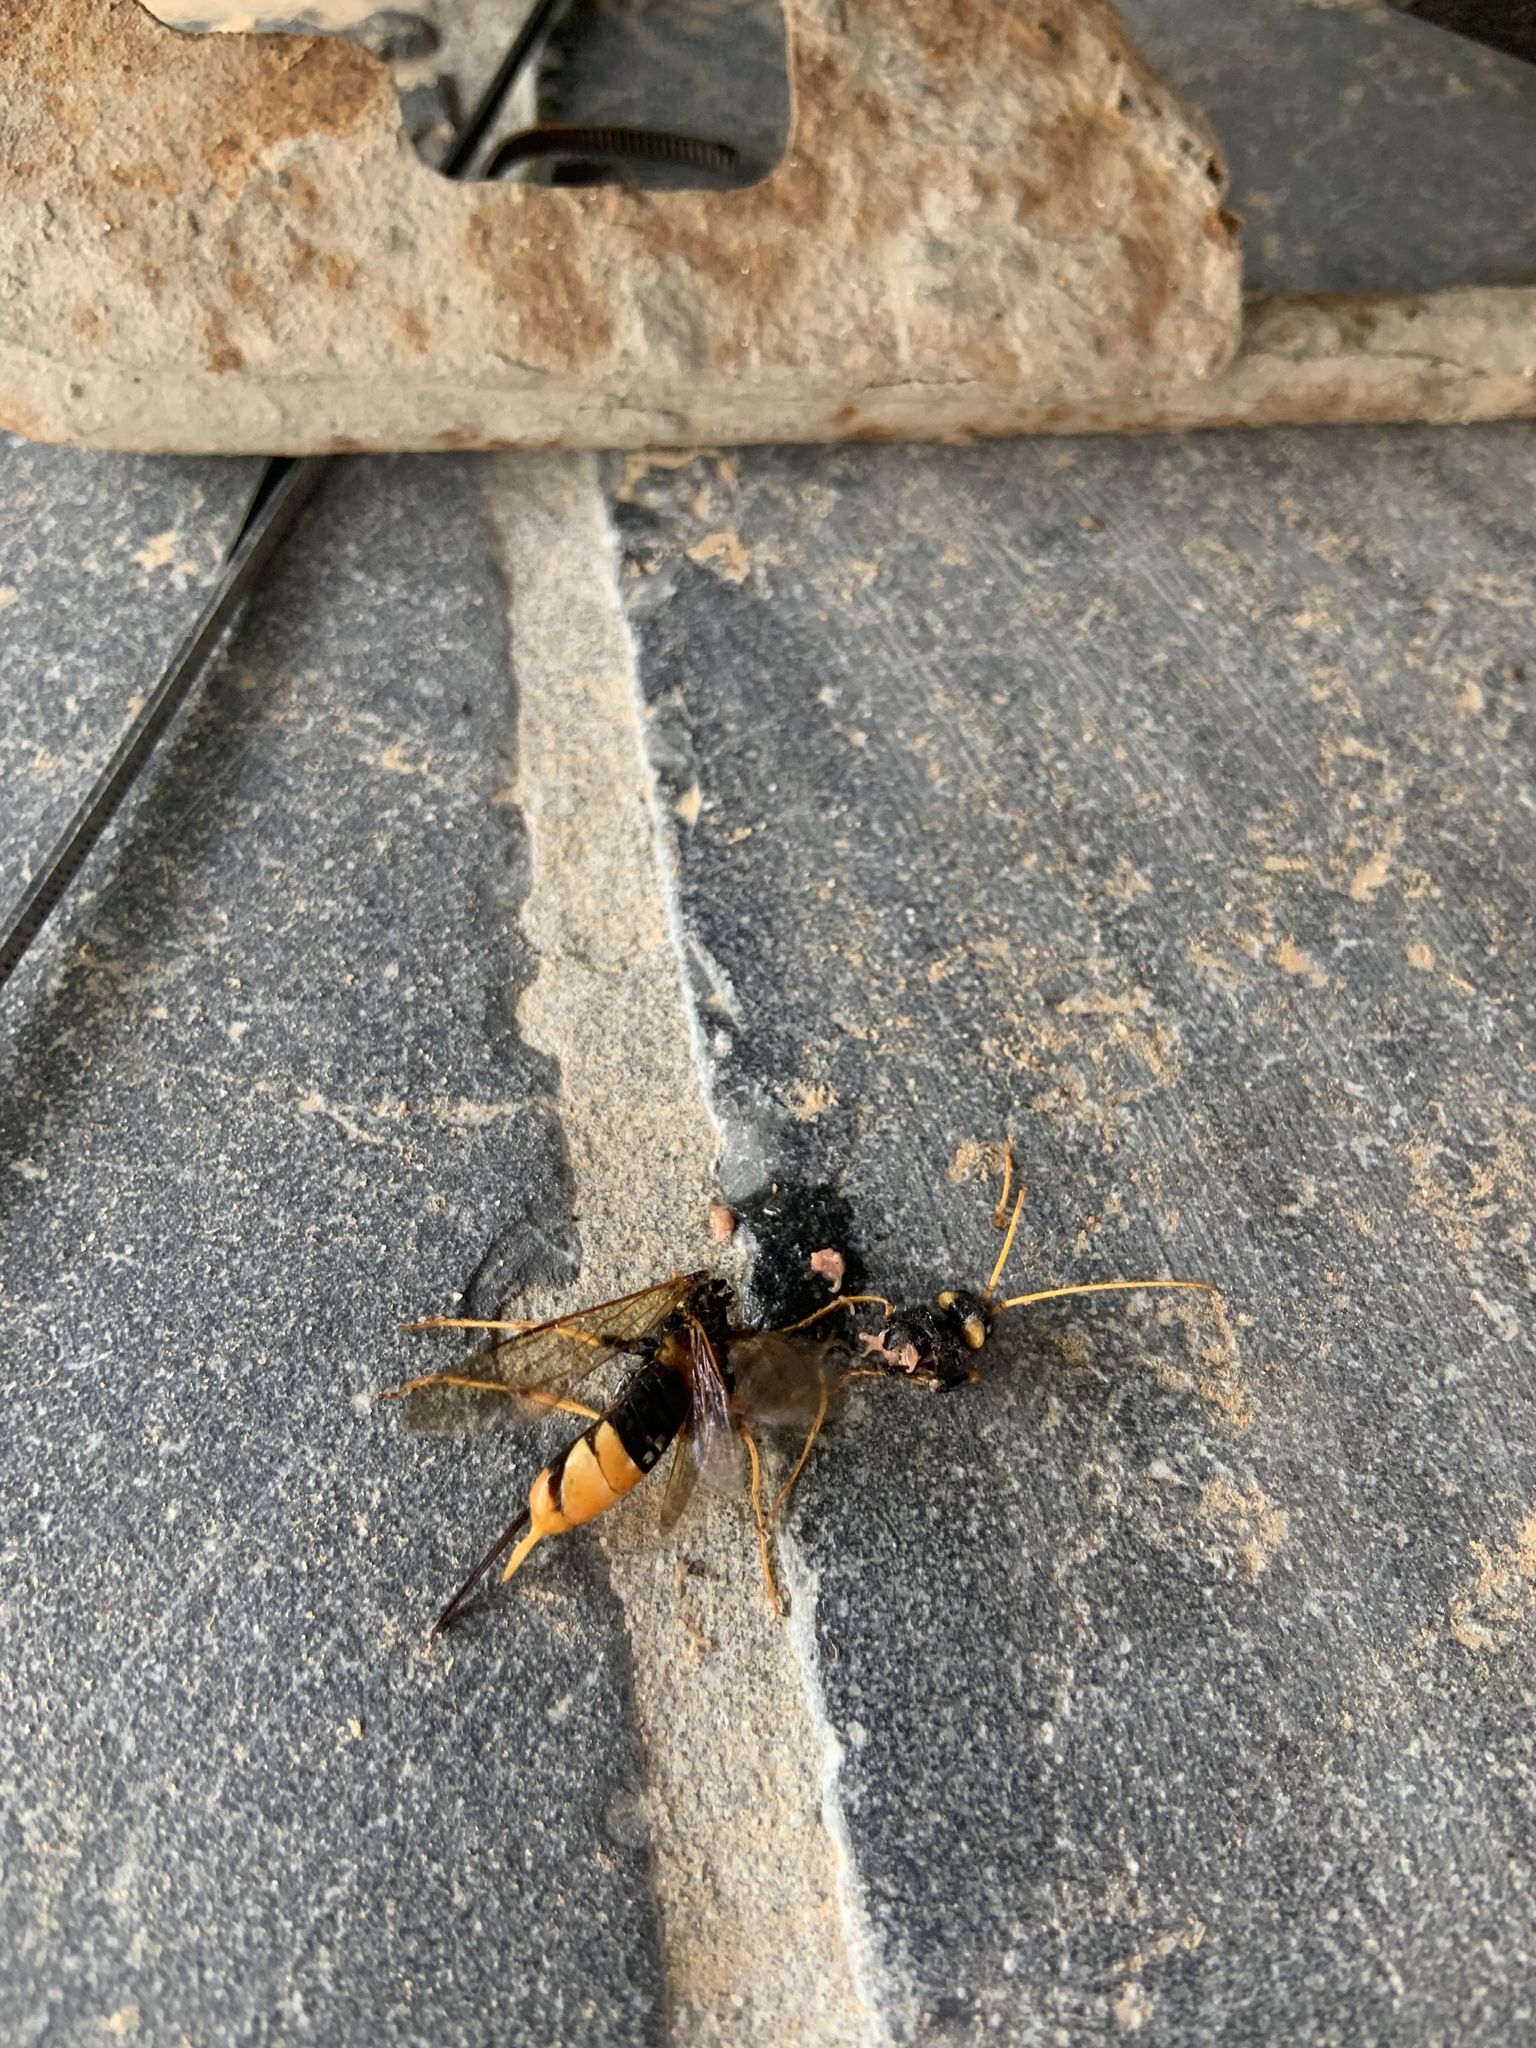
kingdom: Animalia
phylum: Arthropoda
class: Insecta
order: Hymenoptera
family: Siricidae
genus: Urocerus
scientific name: Urocerus gigas
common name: Giant woodwasp
